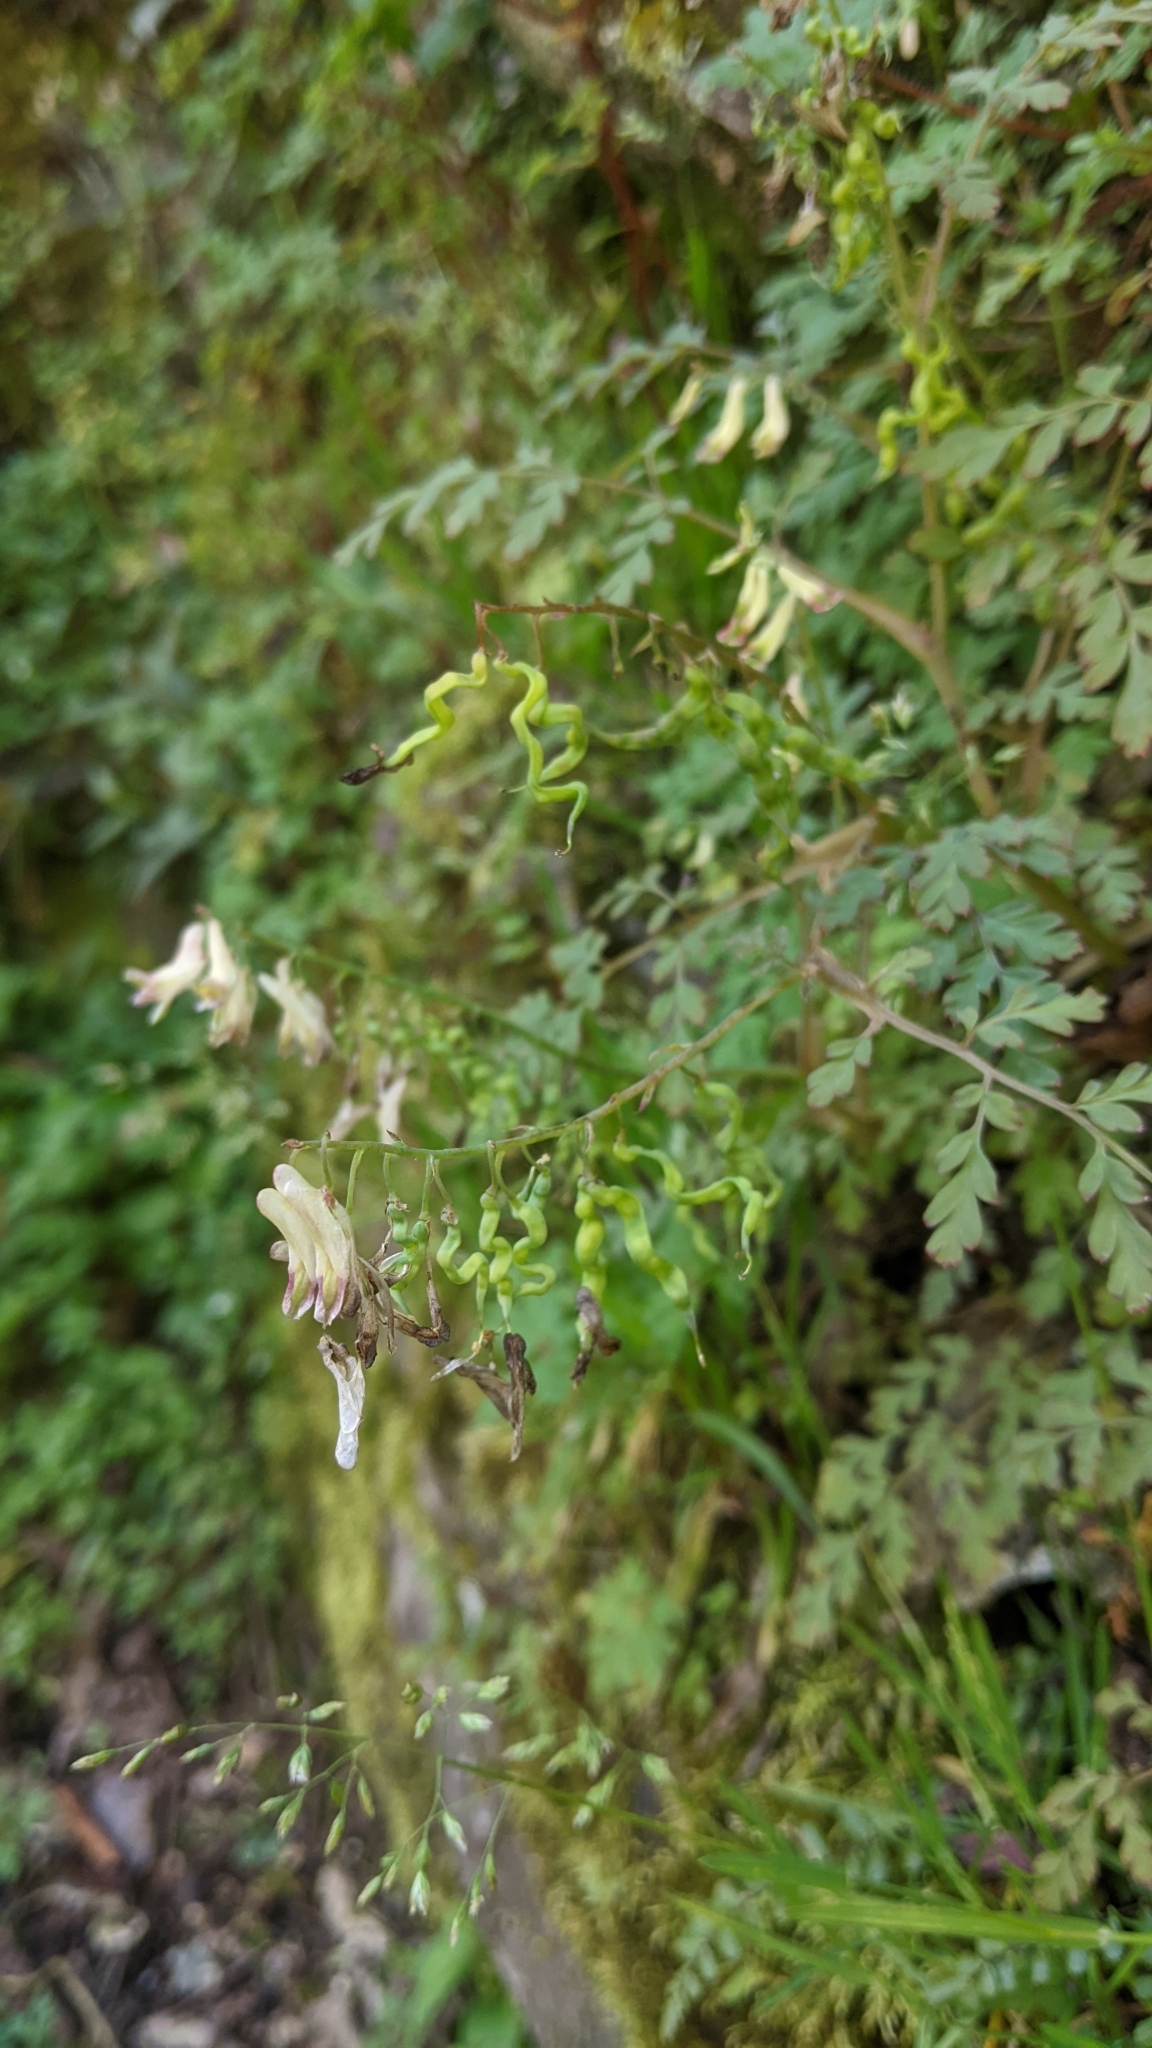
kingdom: Plantae
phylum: Tracheophyta
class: Magnoliopsida
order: Ranunculales
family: Papaveraceae
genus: Corydalis
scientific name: Corydalis ophiocarpa
